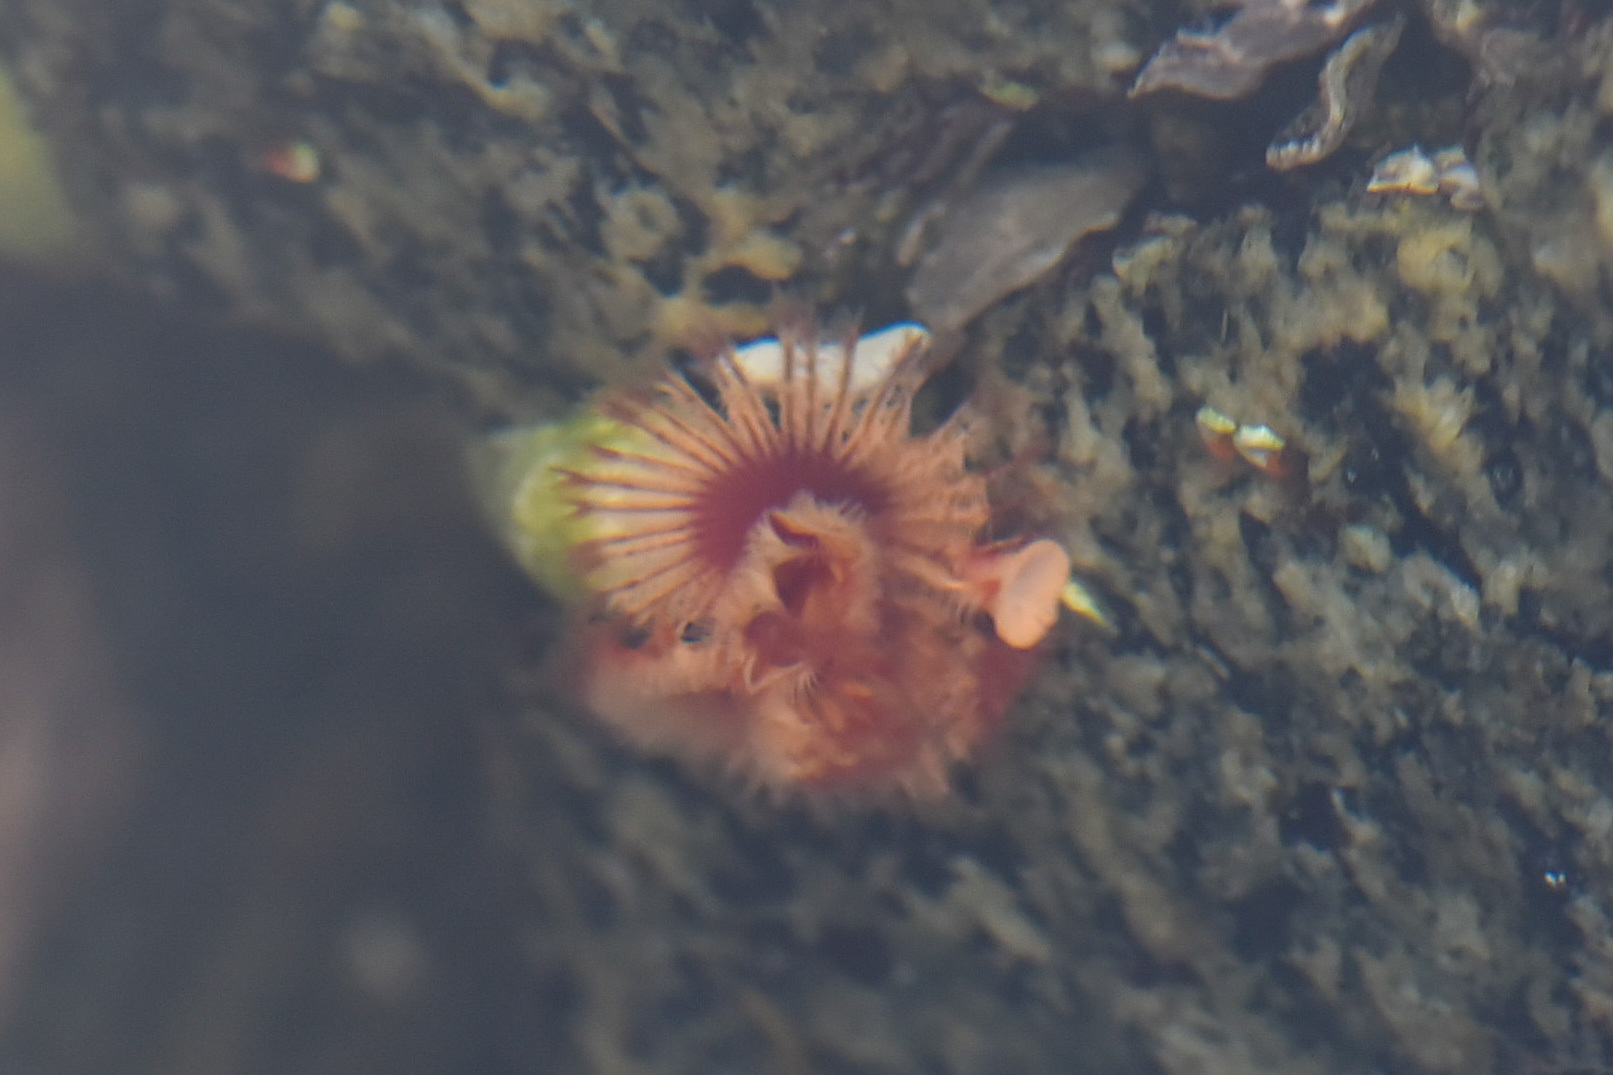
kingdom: Animalia
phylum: Annelida
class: Polychaeta
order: Sabellida
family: Serpulidae
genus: Serpula
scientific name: Serpula columbiana
